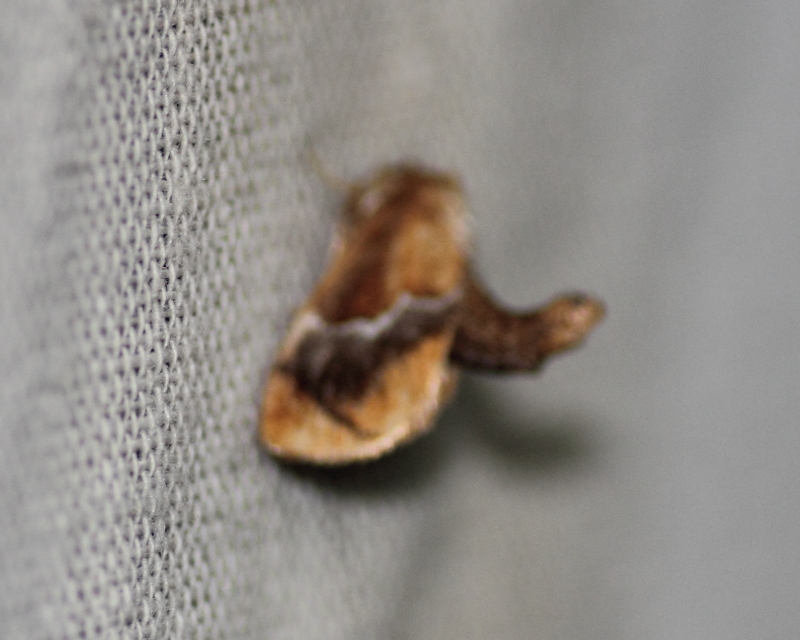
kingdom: Animalia
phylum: Arthropoda
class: Insecta
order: Lepidoptera
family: Limacodidae
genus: Lithacodes
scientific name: Lithacodes fasciola
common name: Yellow-shouldered slug moth
